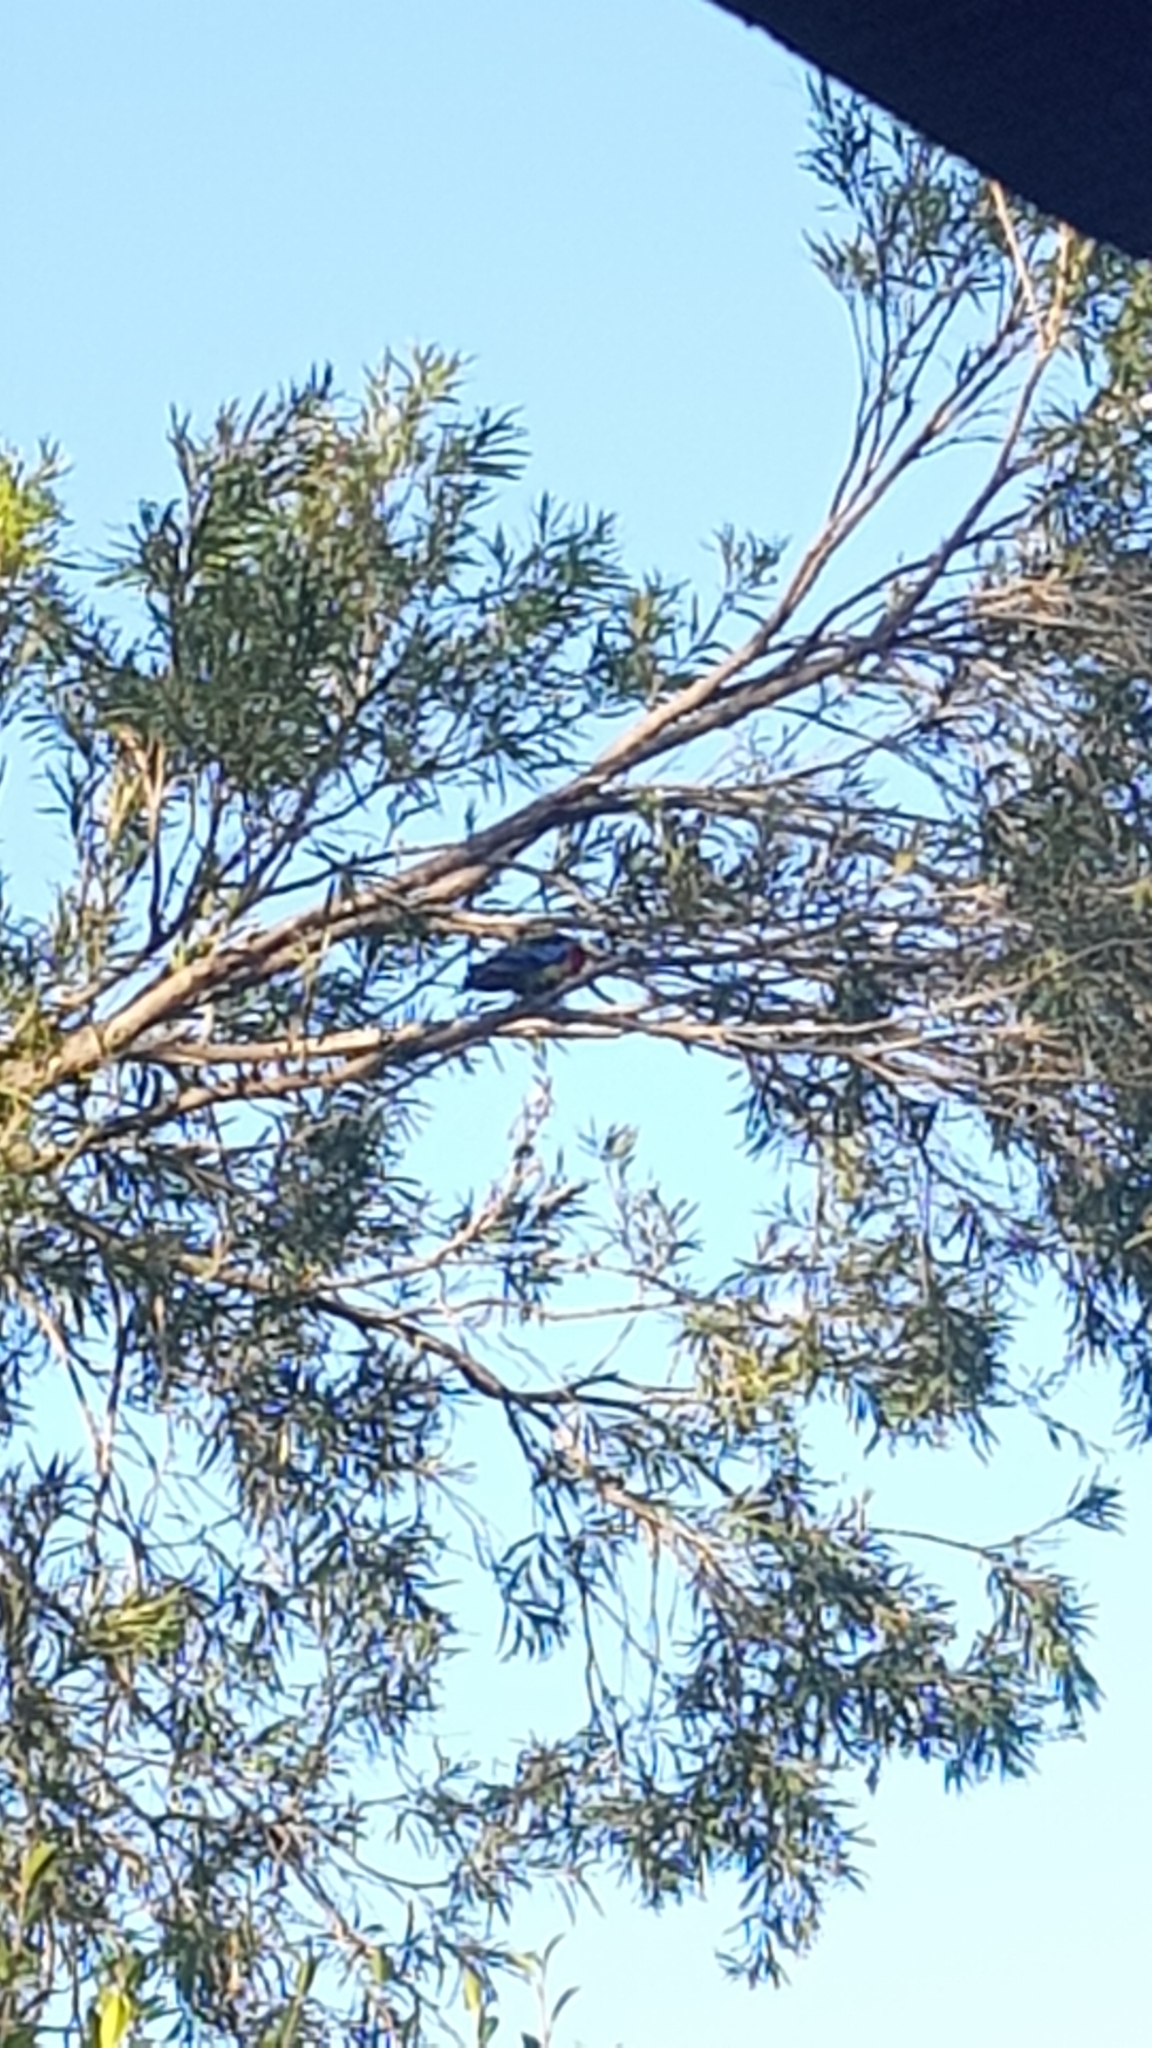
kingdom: Animalia
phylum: Chordata
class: Aves
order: Psittaciformes
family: Psittacidae
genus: Platycercus
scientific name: Platycercus eximius
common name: Eastern rosella
